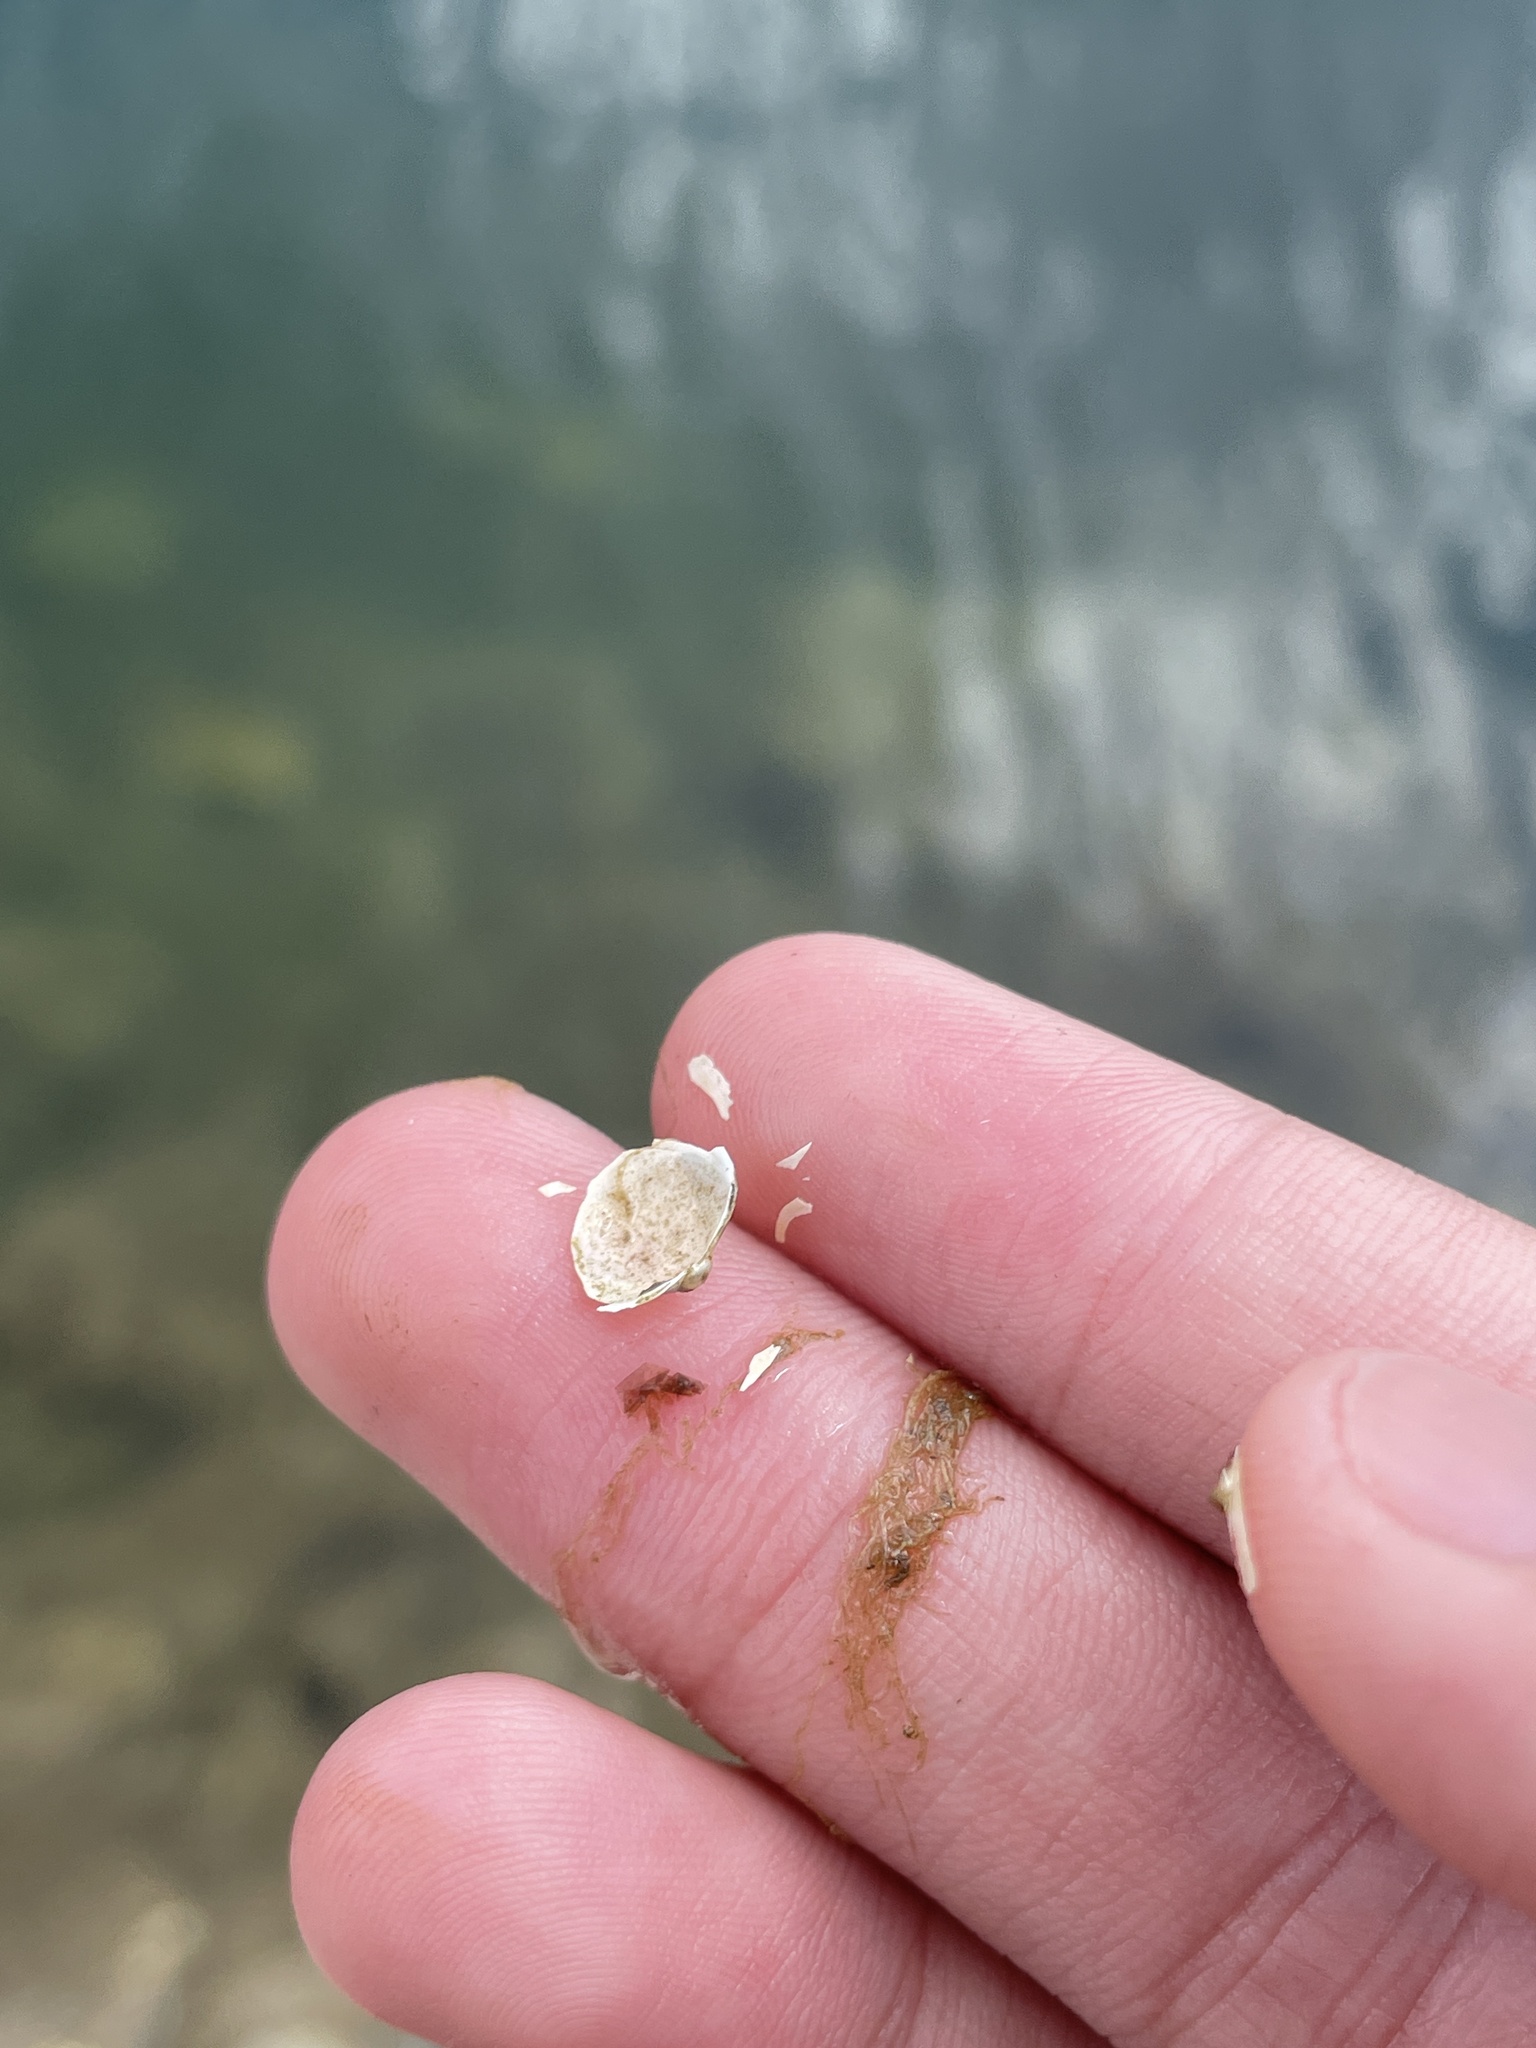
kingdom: Animalia
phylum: Mollusca
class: Bivalvia
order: Sphaeriida
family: Sphaeriidae
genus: Musculium
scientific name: Musculium lacustre
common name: Lake fingernailclam
